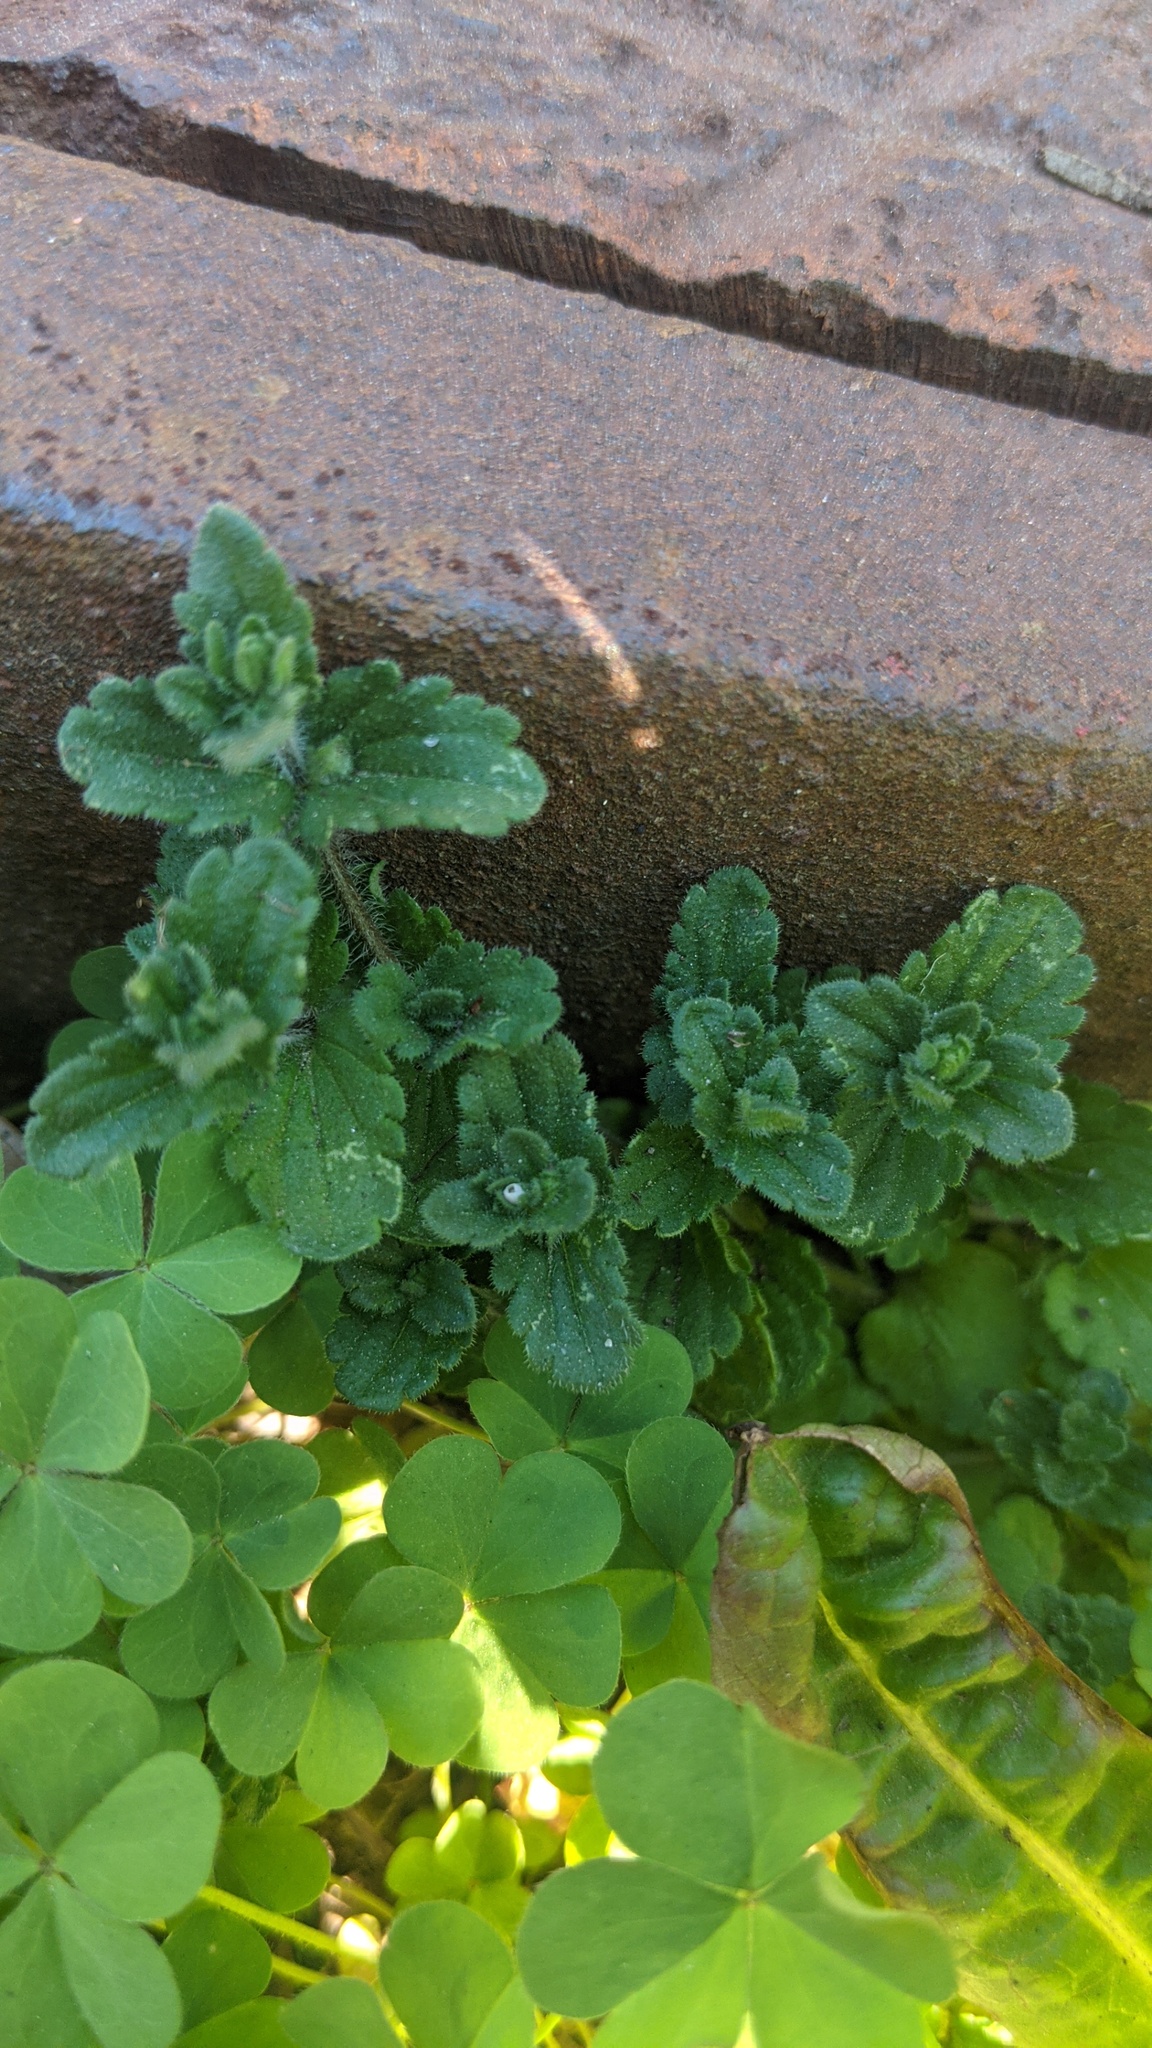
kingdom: Plantae
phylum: Tracheophyta
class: Magnoliopsida
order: Lamiales
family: Plantaginaceae
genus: Veronica
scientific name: Veronica arvensis
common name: Corn speedwell
